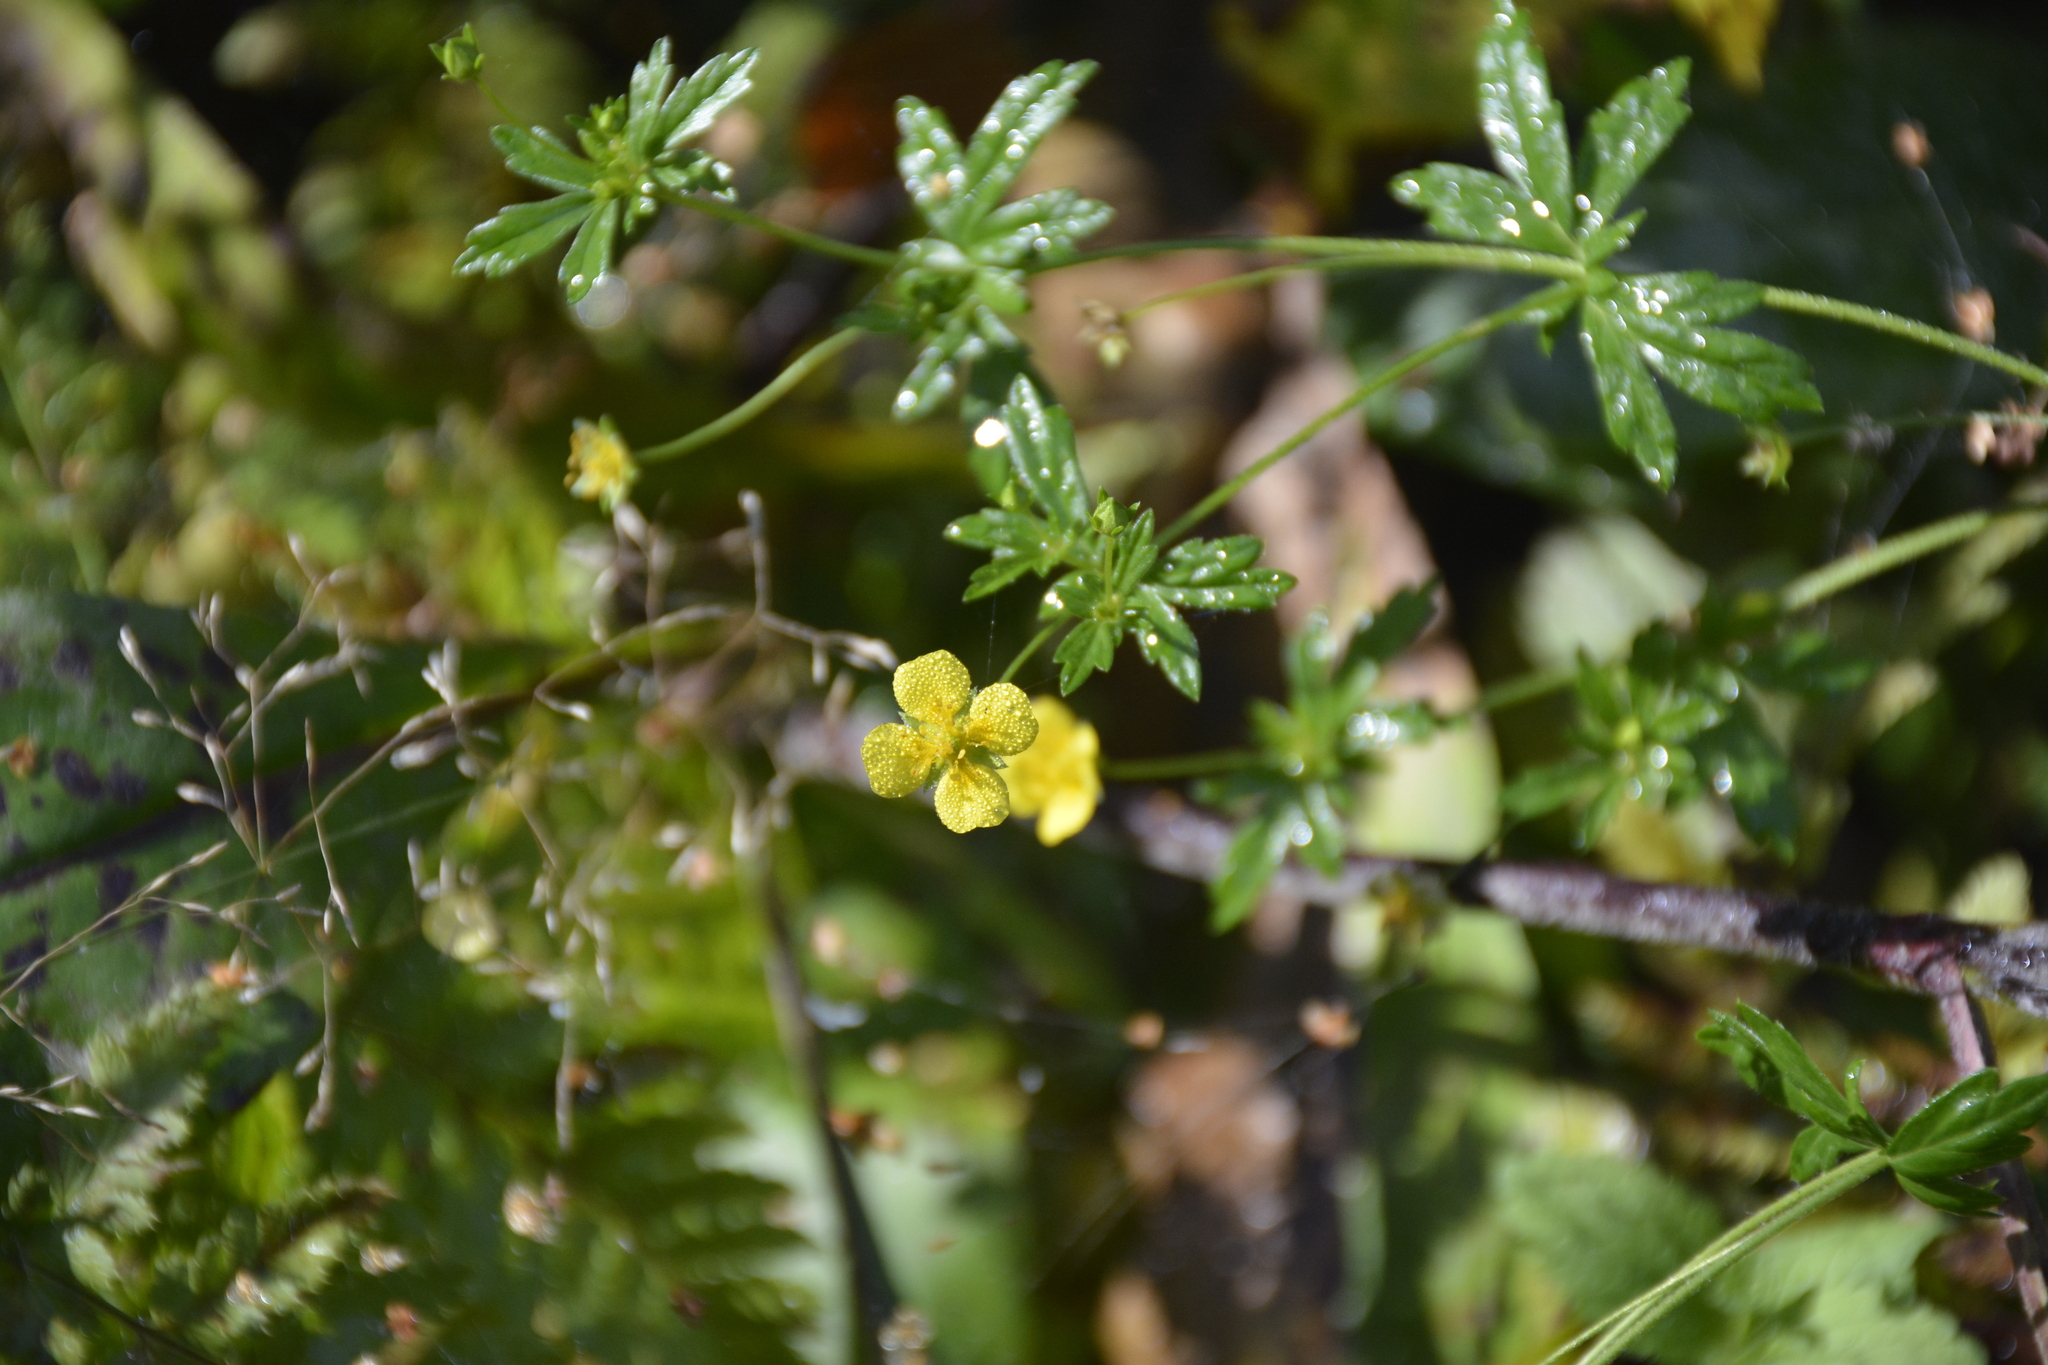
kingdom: Plantae
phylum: Tracheophyta
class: Magnoliopsida
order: Rosales
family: Rosaceae
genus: Potentilla
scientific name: Potentilla erecta
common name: Tormentil
